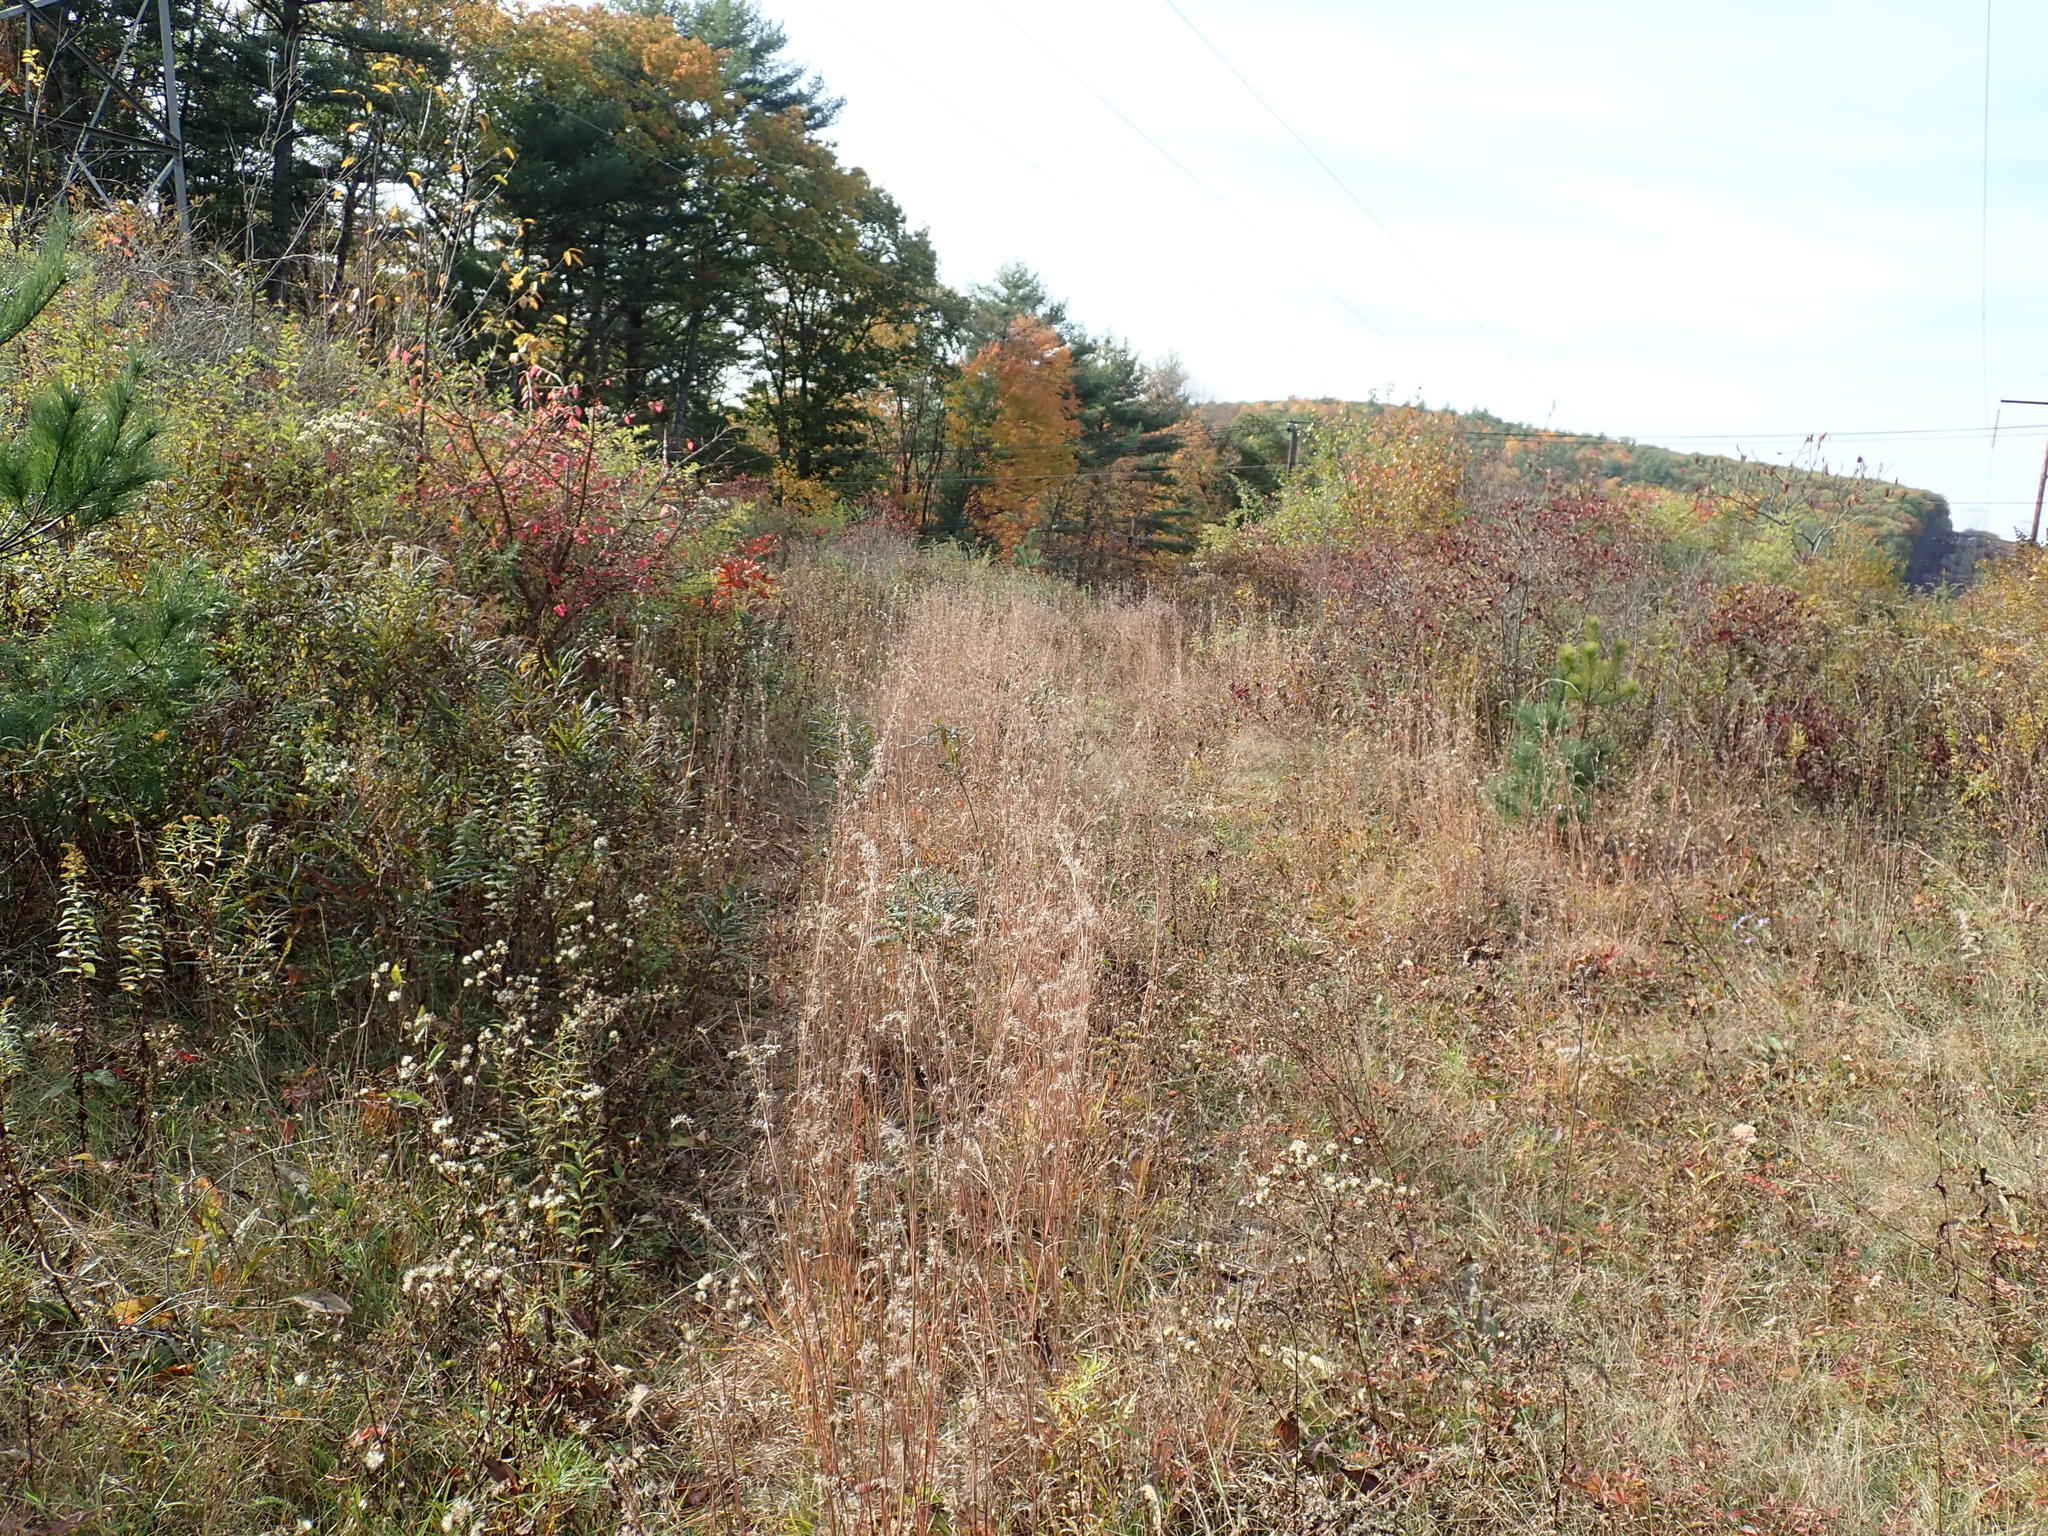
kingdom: Plantae
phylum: Tracheophyta
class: Liliopsida
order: Poales
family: Poaceae
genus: Schizachyrium
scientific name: Schizachyrium scoparium
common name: Little bluestem
